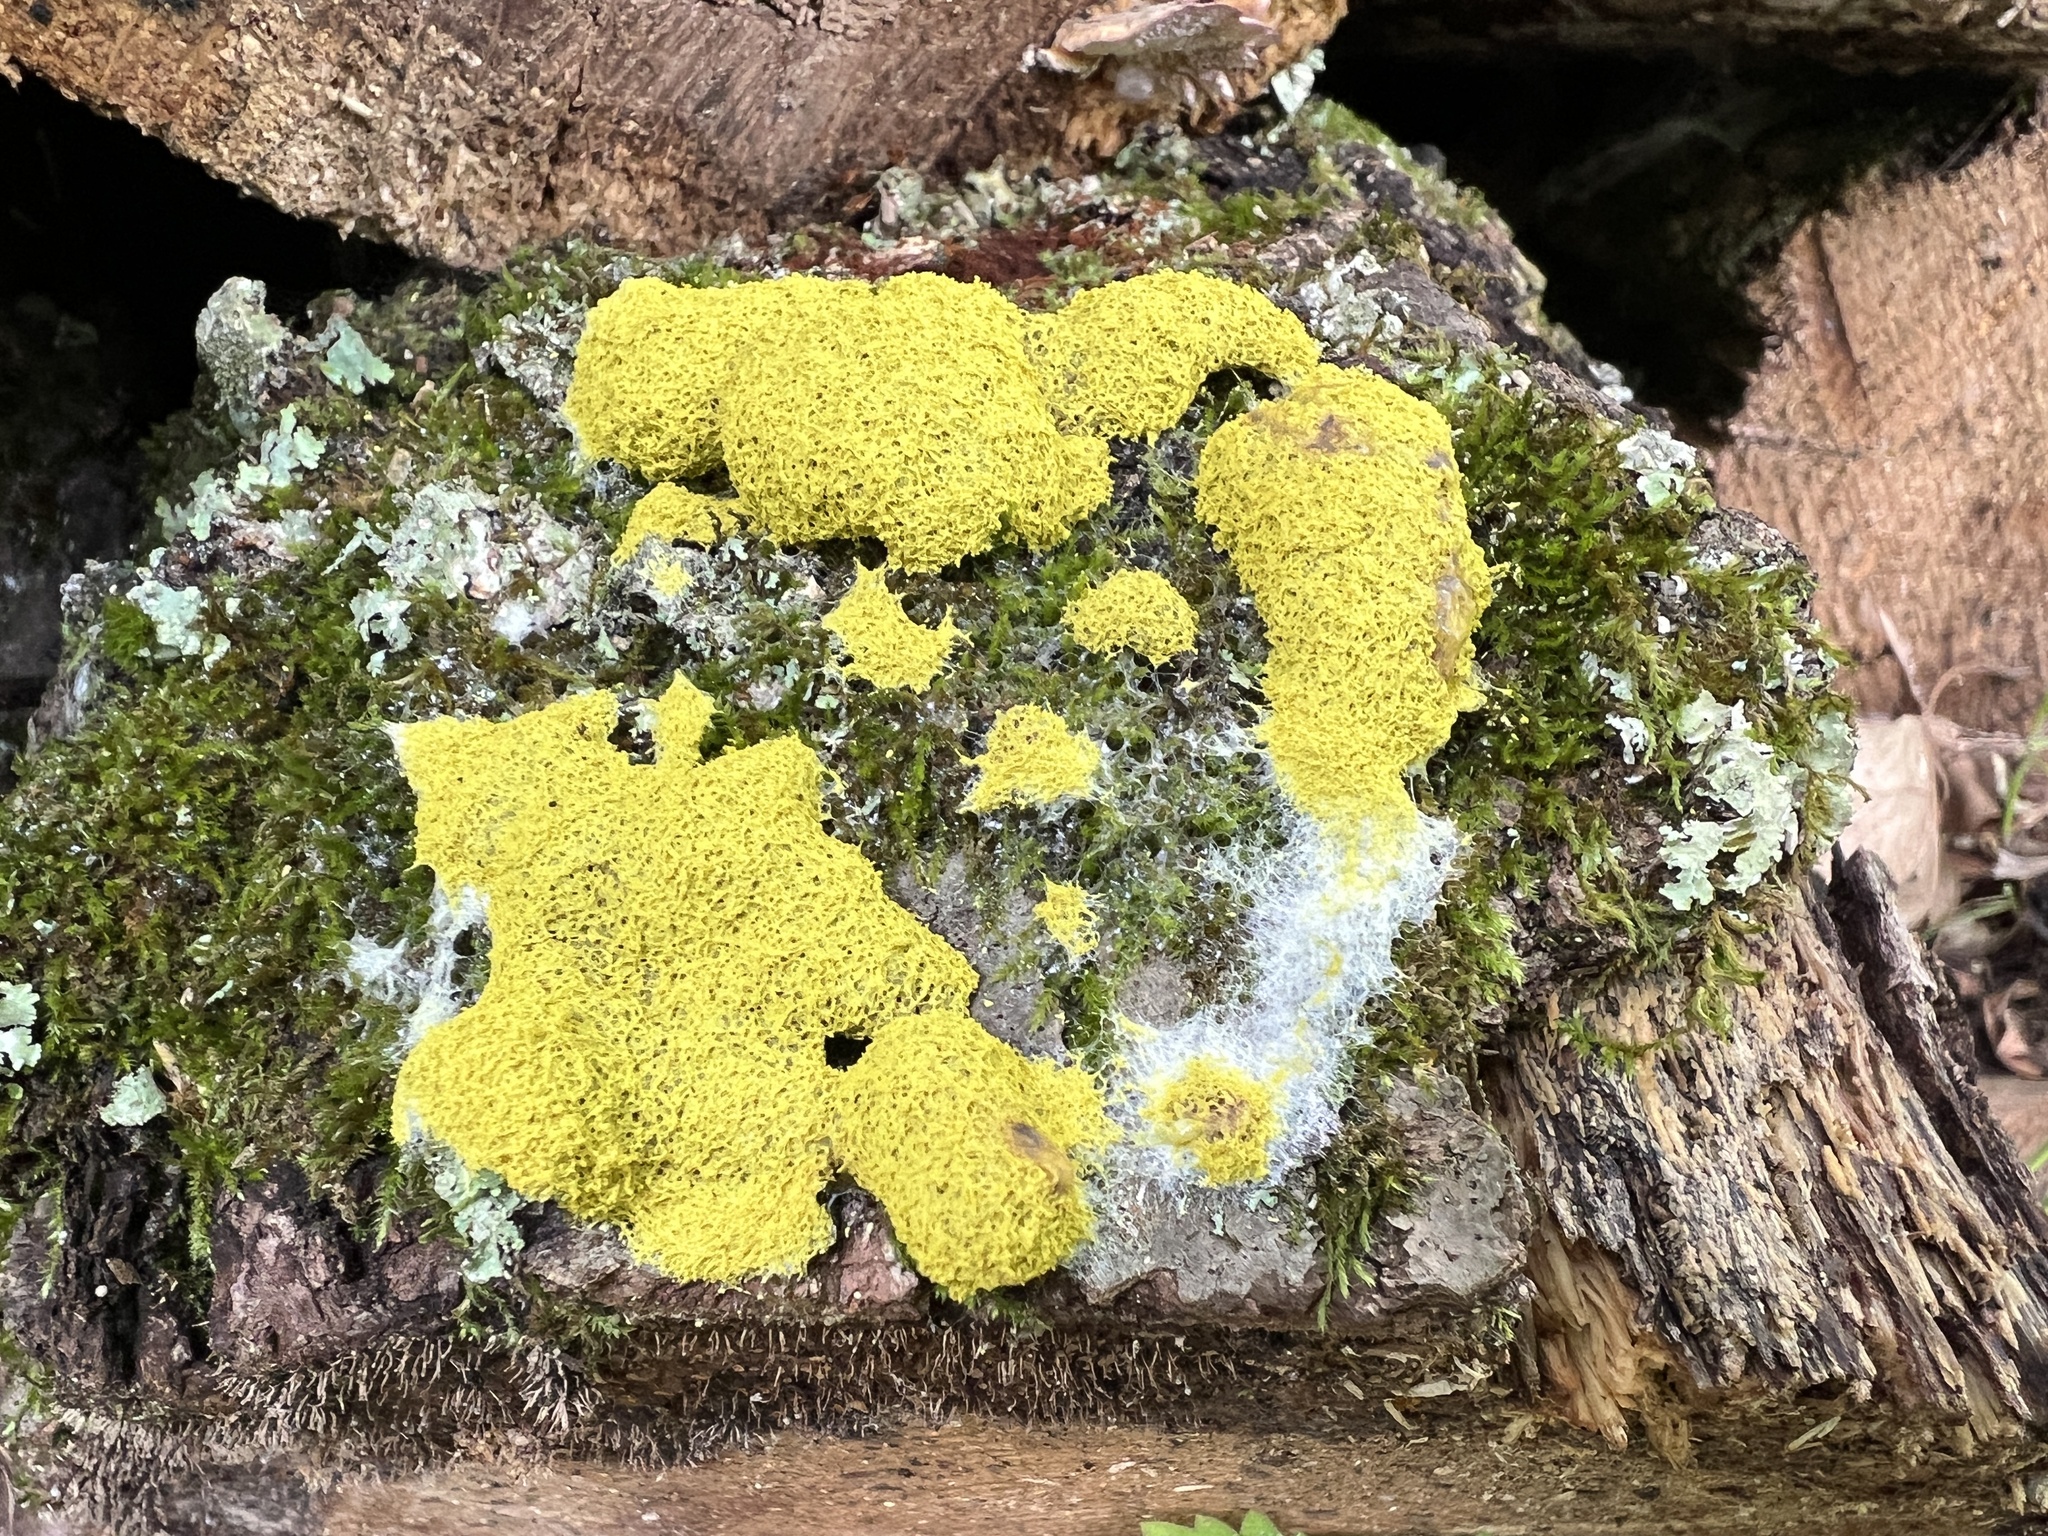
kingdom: Protozoa
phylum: Mycetozoa
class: Myxomycetes
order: Physarales
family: Physaraceae
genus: Fuligo
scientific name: Fuligo septica
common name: Dog vomit slime mold
